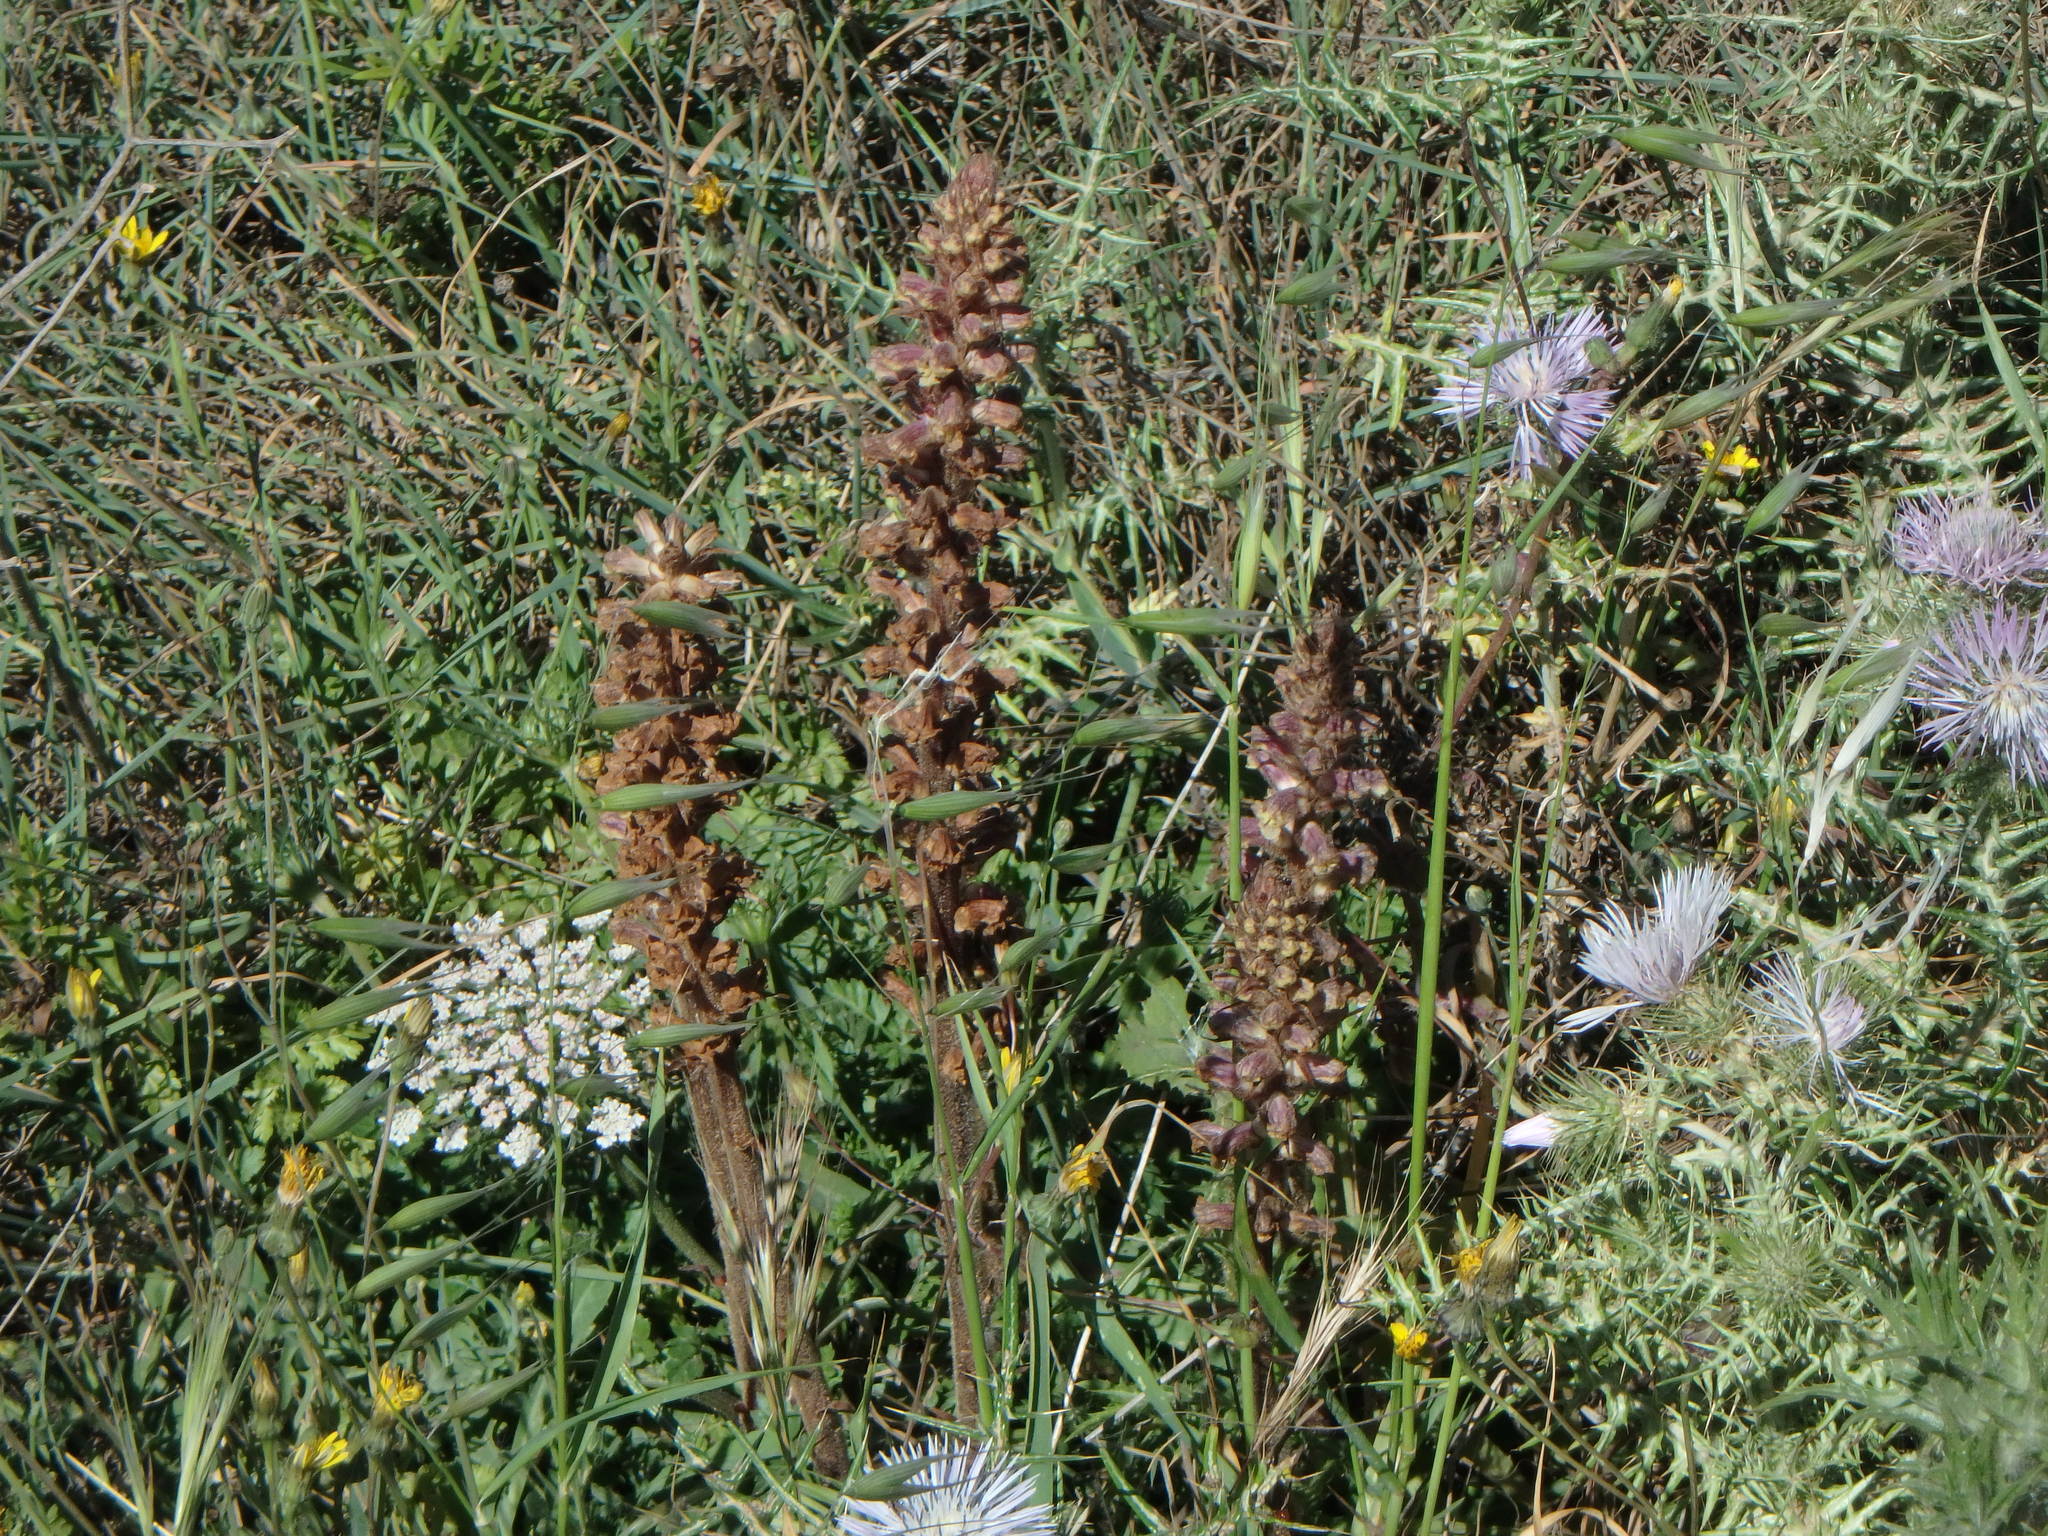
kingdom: Plantae
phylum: Tracheophyta
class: Magnoliopsida
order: Lamiales
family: Orobanchaceae
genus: Orobanche
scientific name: Orobanche minor
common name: Common broomrape
